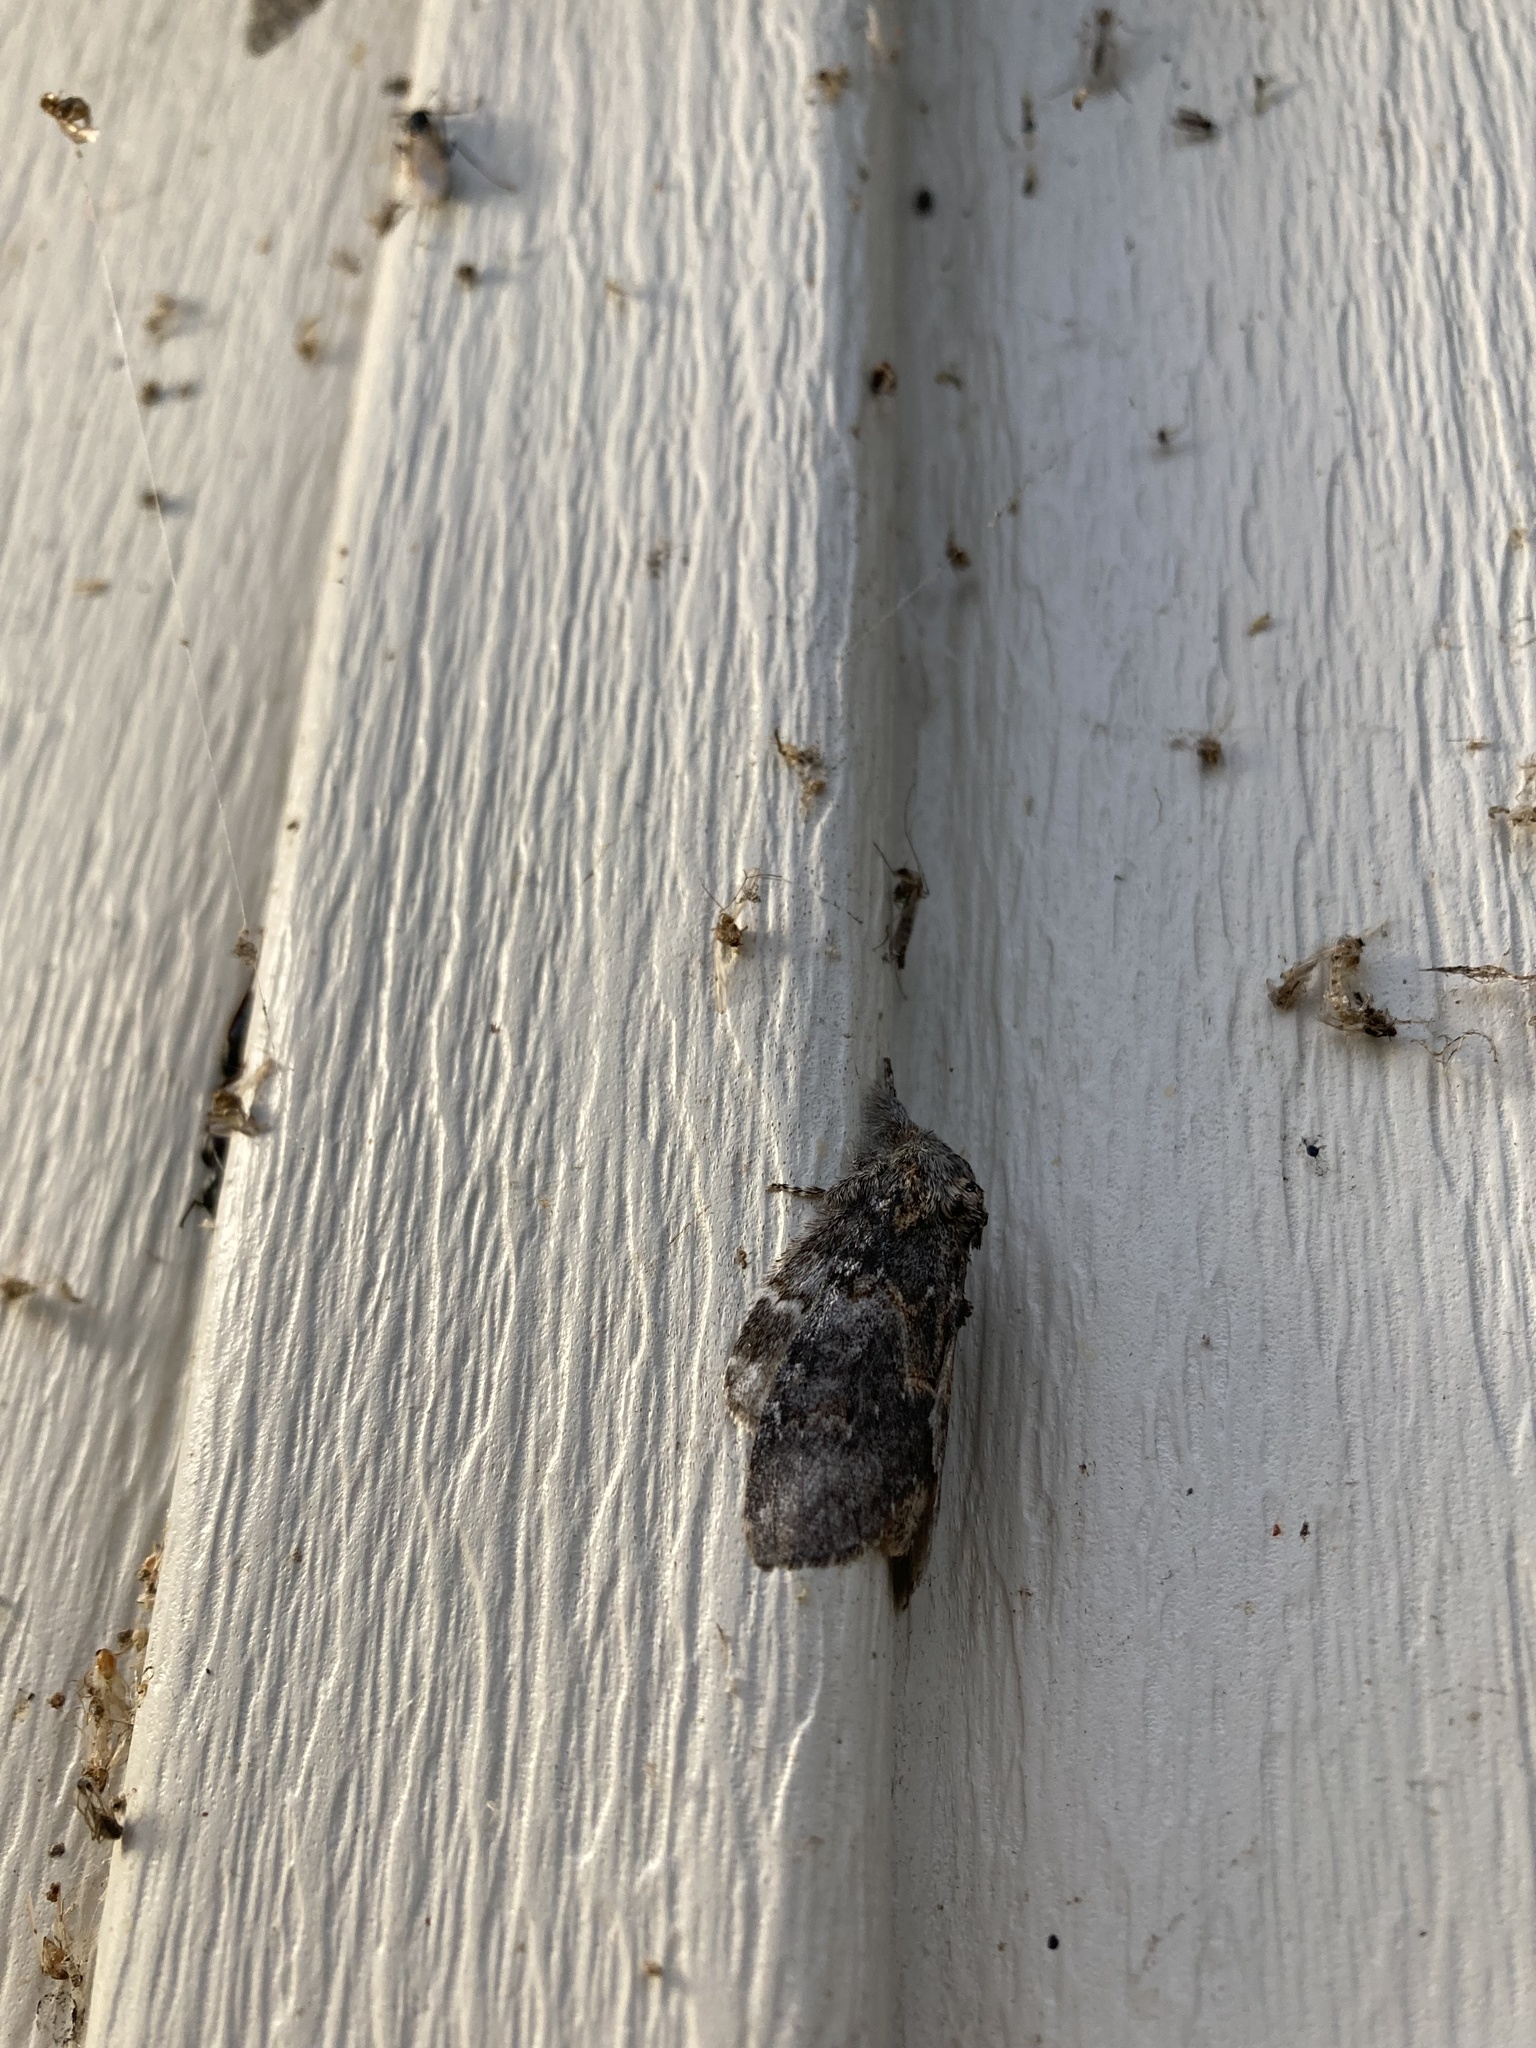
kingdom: Animalia
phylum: Arthropoda
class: Insecta
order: Lepidoptera
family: Notodontidae
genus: Peridea
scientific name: Peridea angulosa
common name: Angulose prominent
